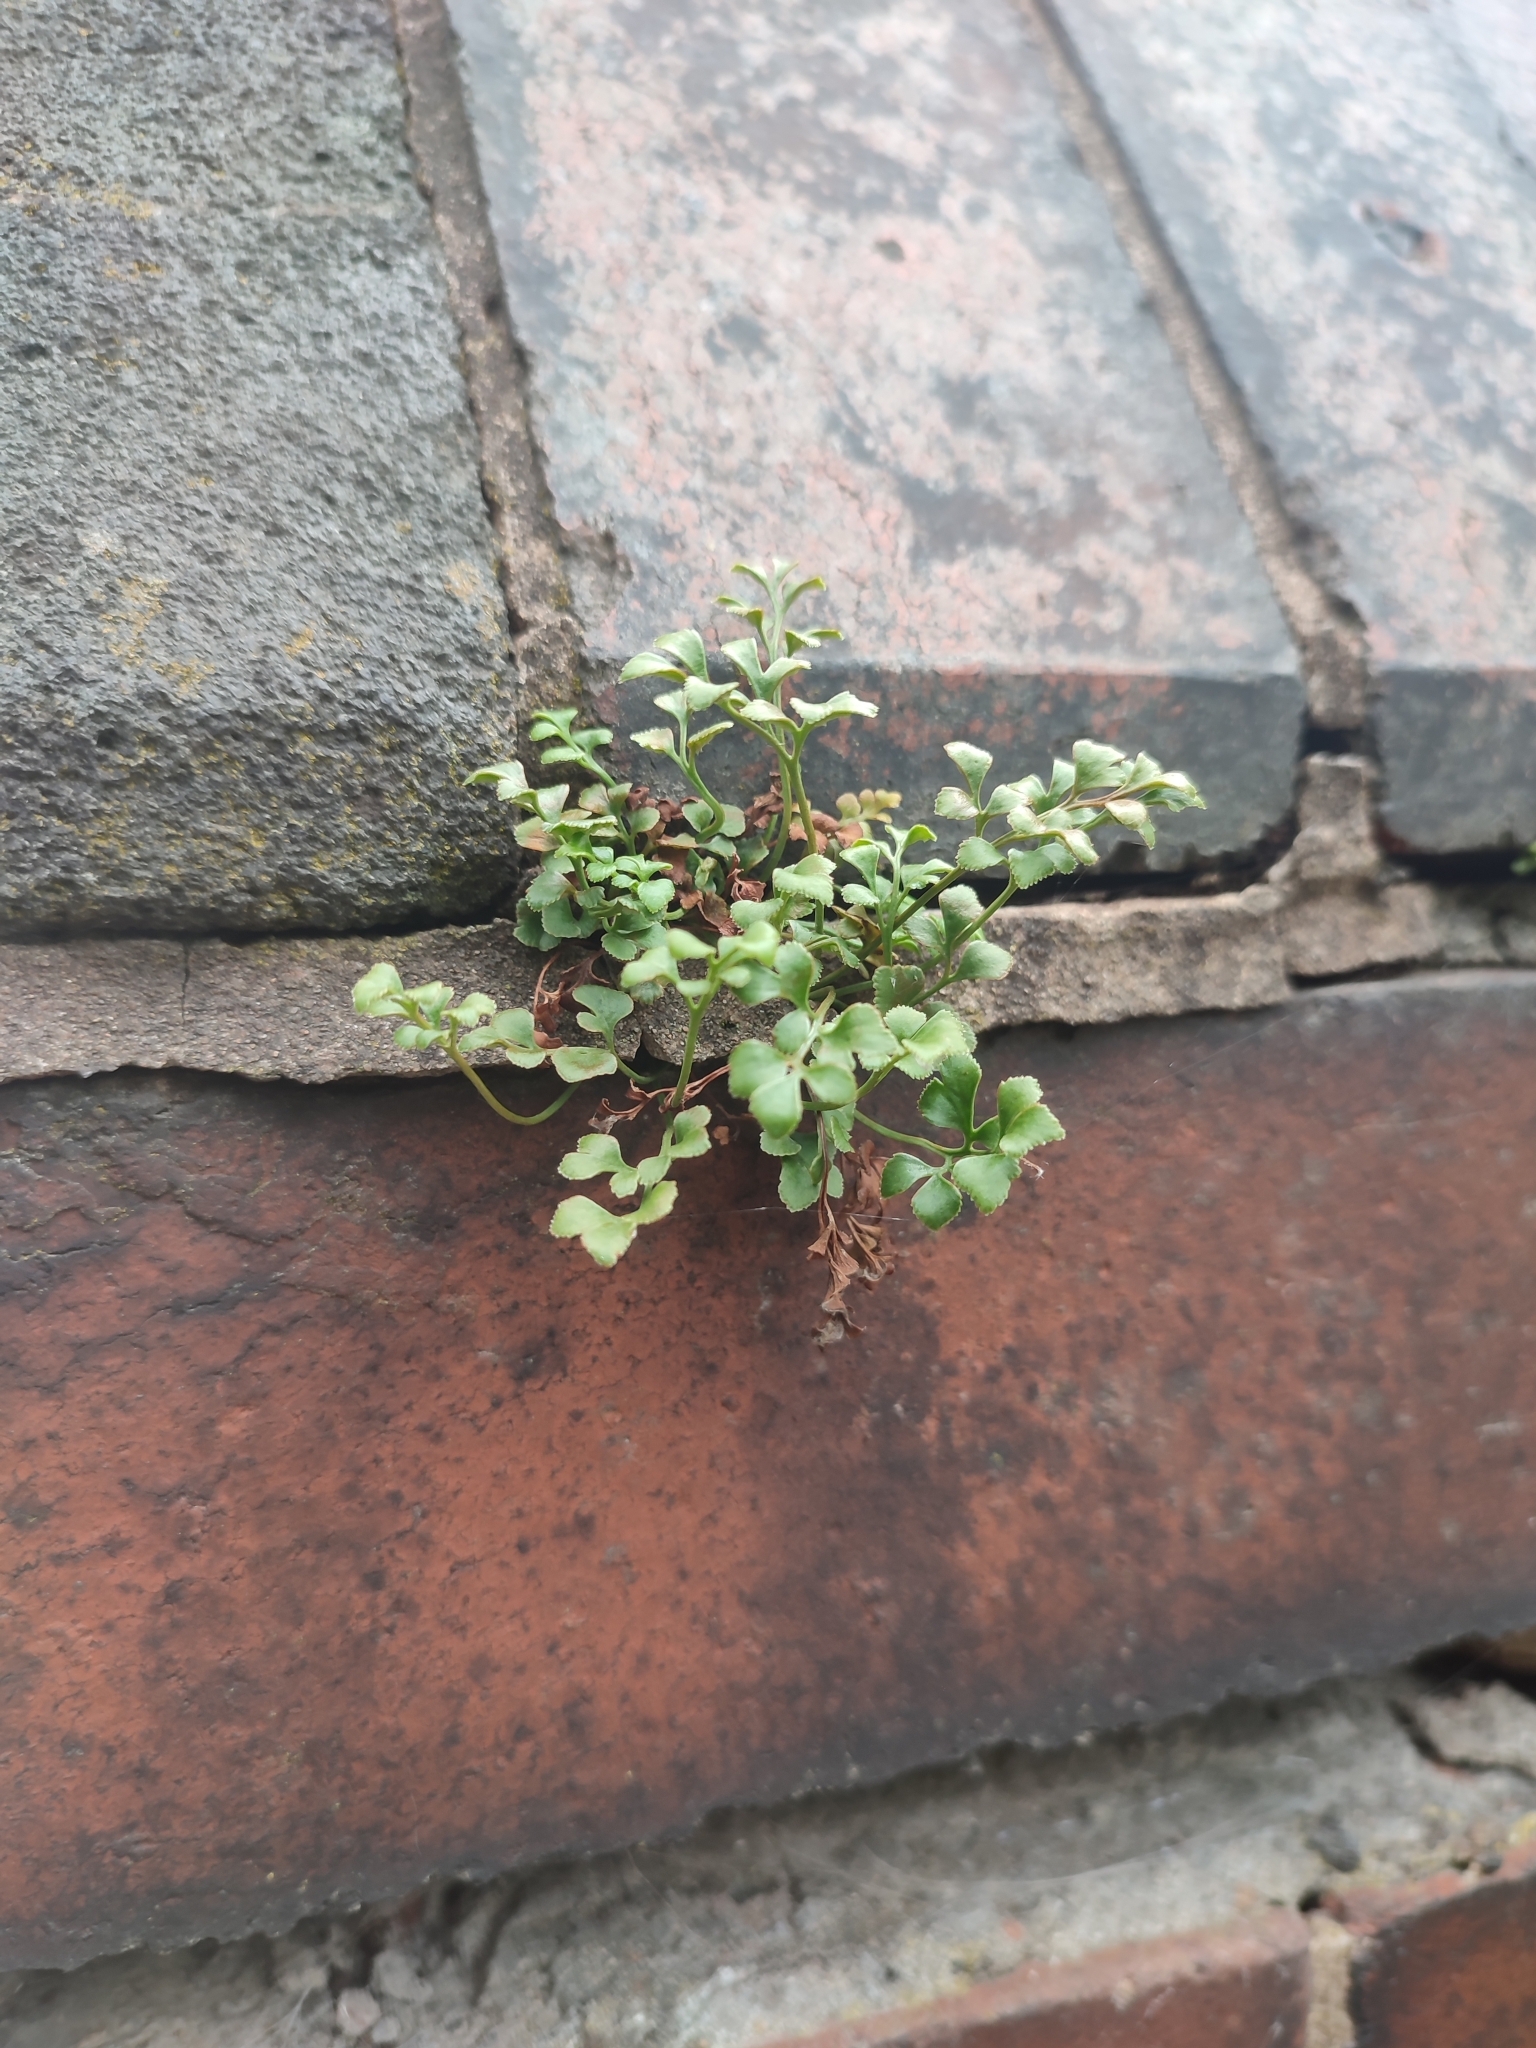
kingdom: Plantae
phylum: Tracheophyta
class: Polypodiopsida
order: Polypodiales
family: Aspleniaceae
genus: Asplenium
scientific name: Asplenium ruta-muraria
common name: Wall-rue
